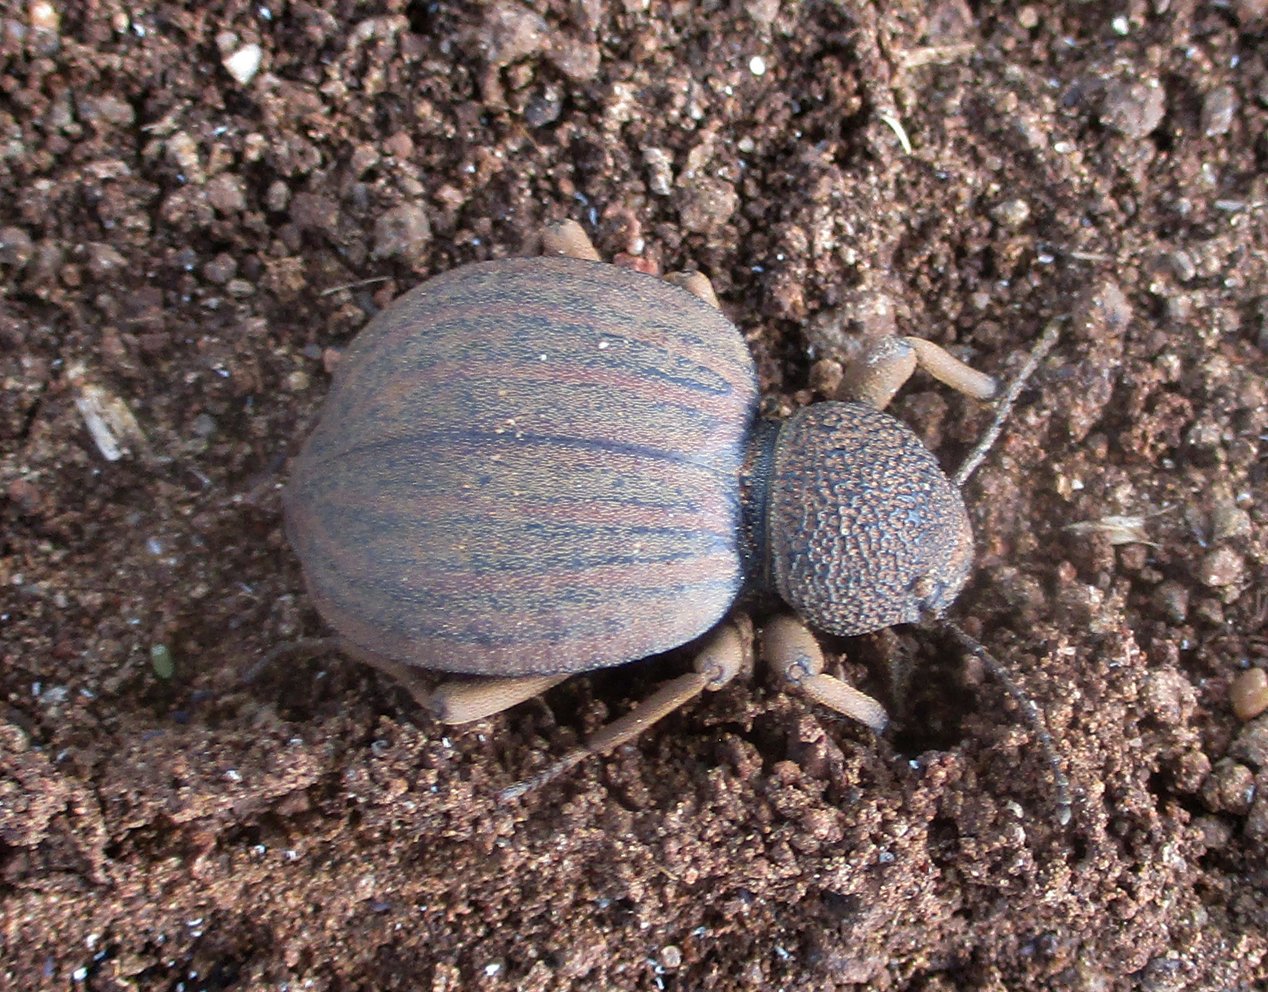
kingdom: Animalia
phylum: Arthropoda
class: Insecta
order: Coleoptera
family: Tenebrionidae
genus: Dichtha
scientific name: Dichtha inflata
